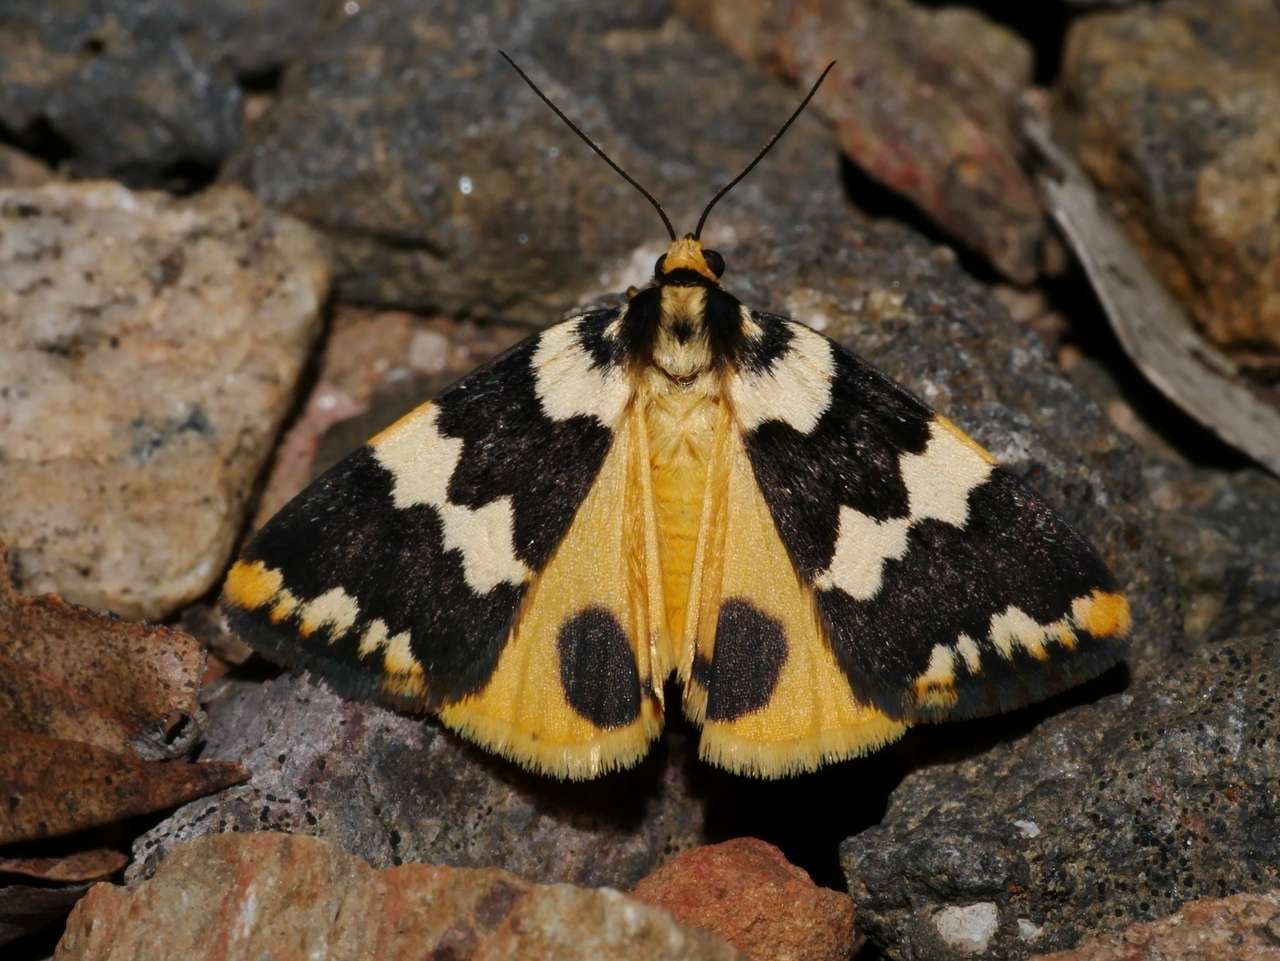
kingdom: Animalia
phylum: Arthropoda
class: Insecta
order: Lepidoptera
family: Erebidae
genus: Termessa
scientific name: Termessa shepherdi
